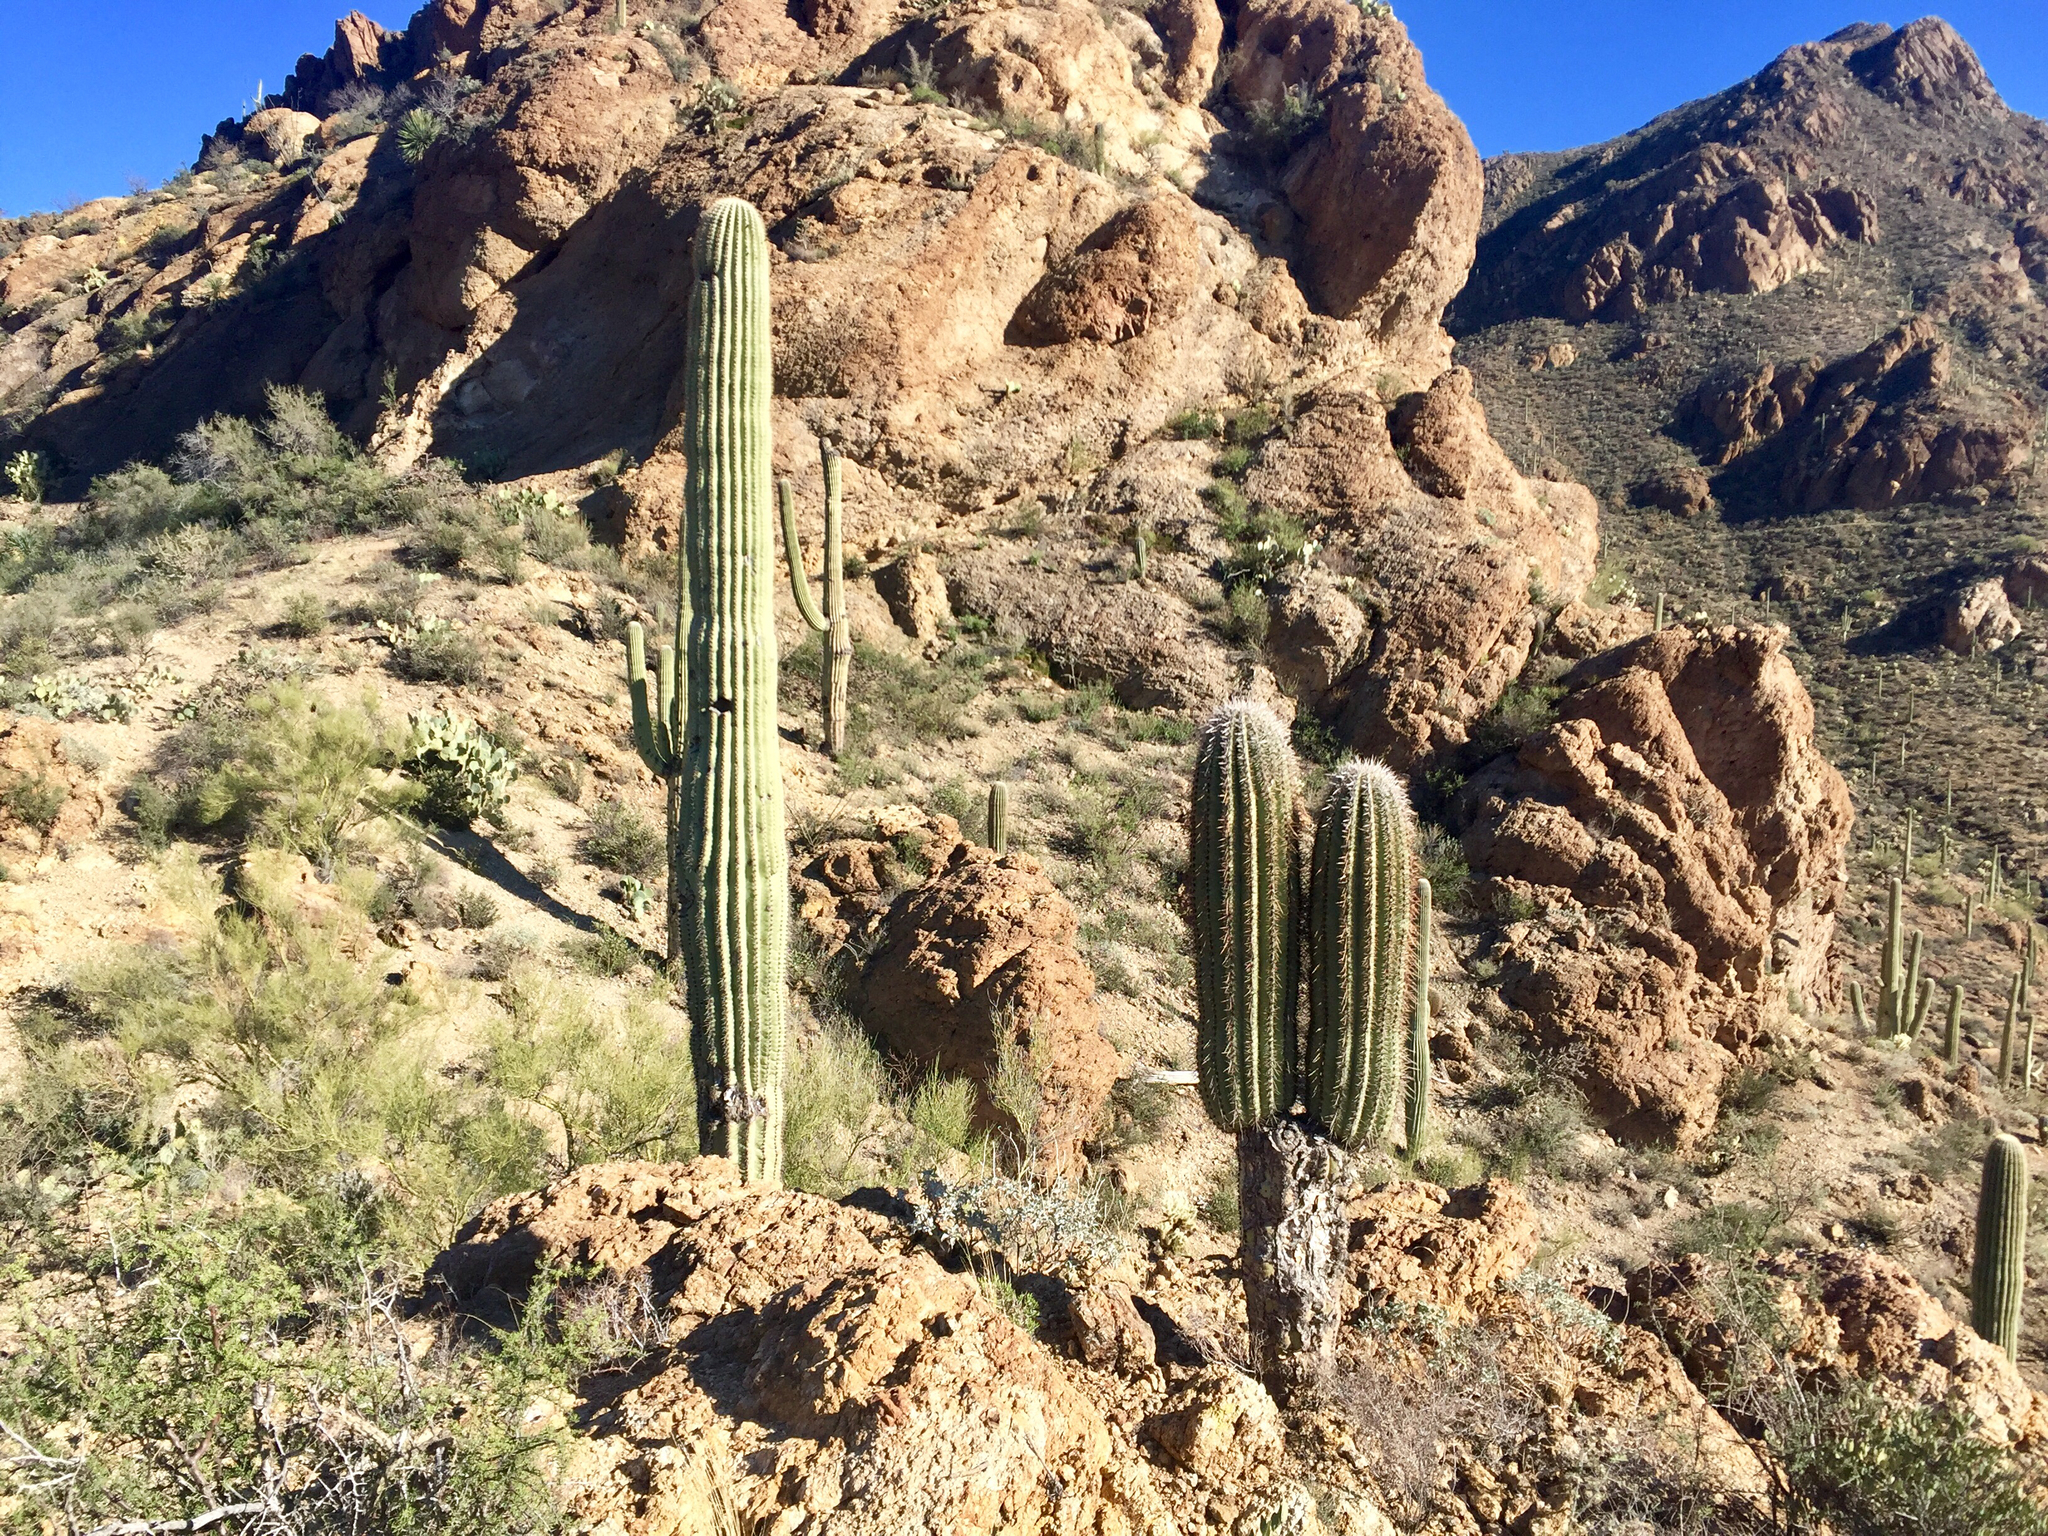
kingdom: Plantae
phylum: Tracheophyta
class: Magnoliopsida
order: Caryophyllales
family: Cactaceae
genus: Carnegiea
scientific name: Carnegiea gigantea
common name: Saguaro
